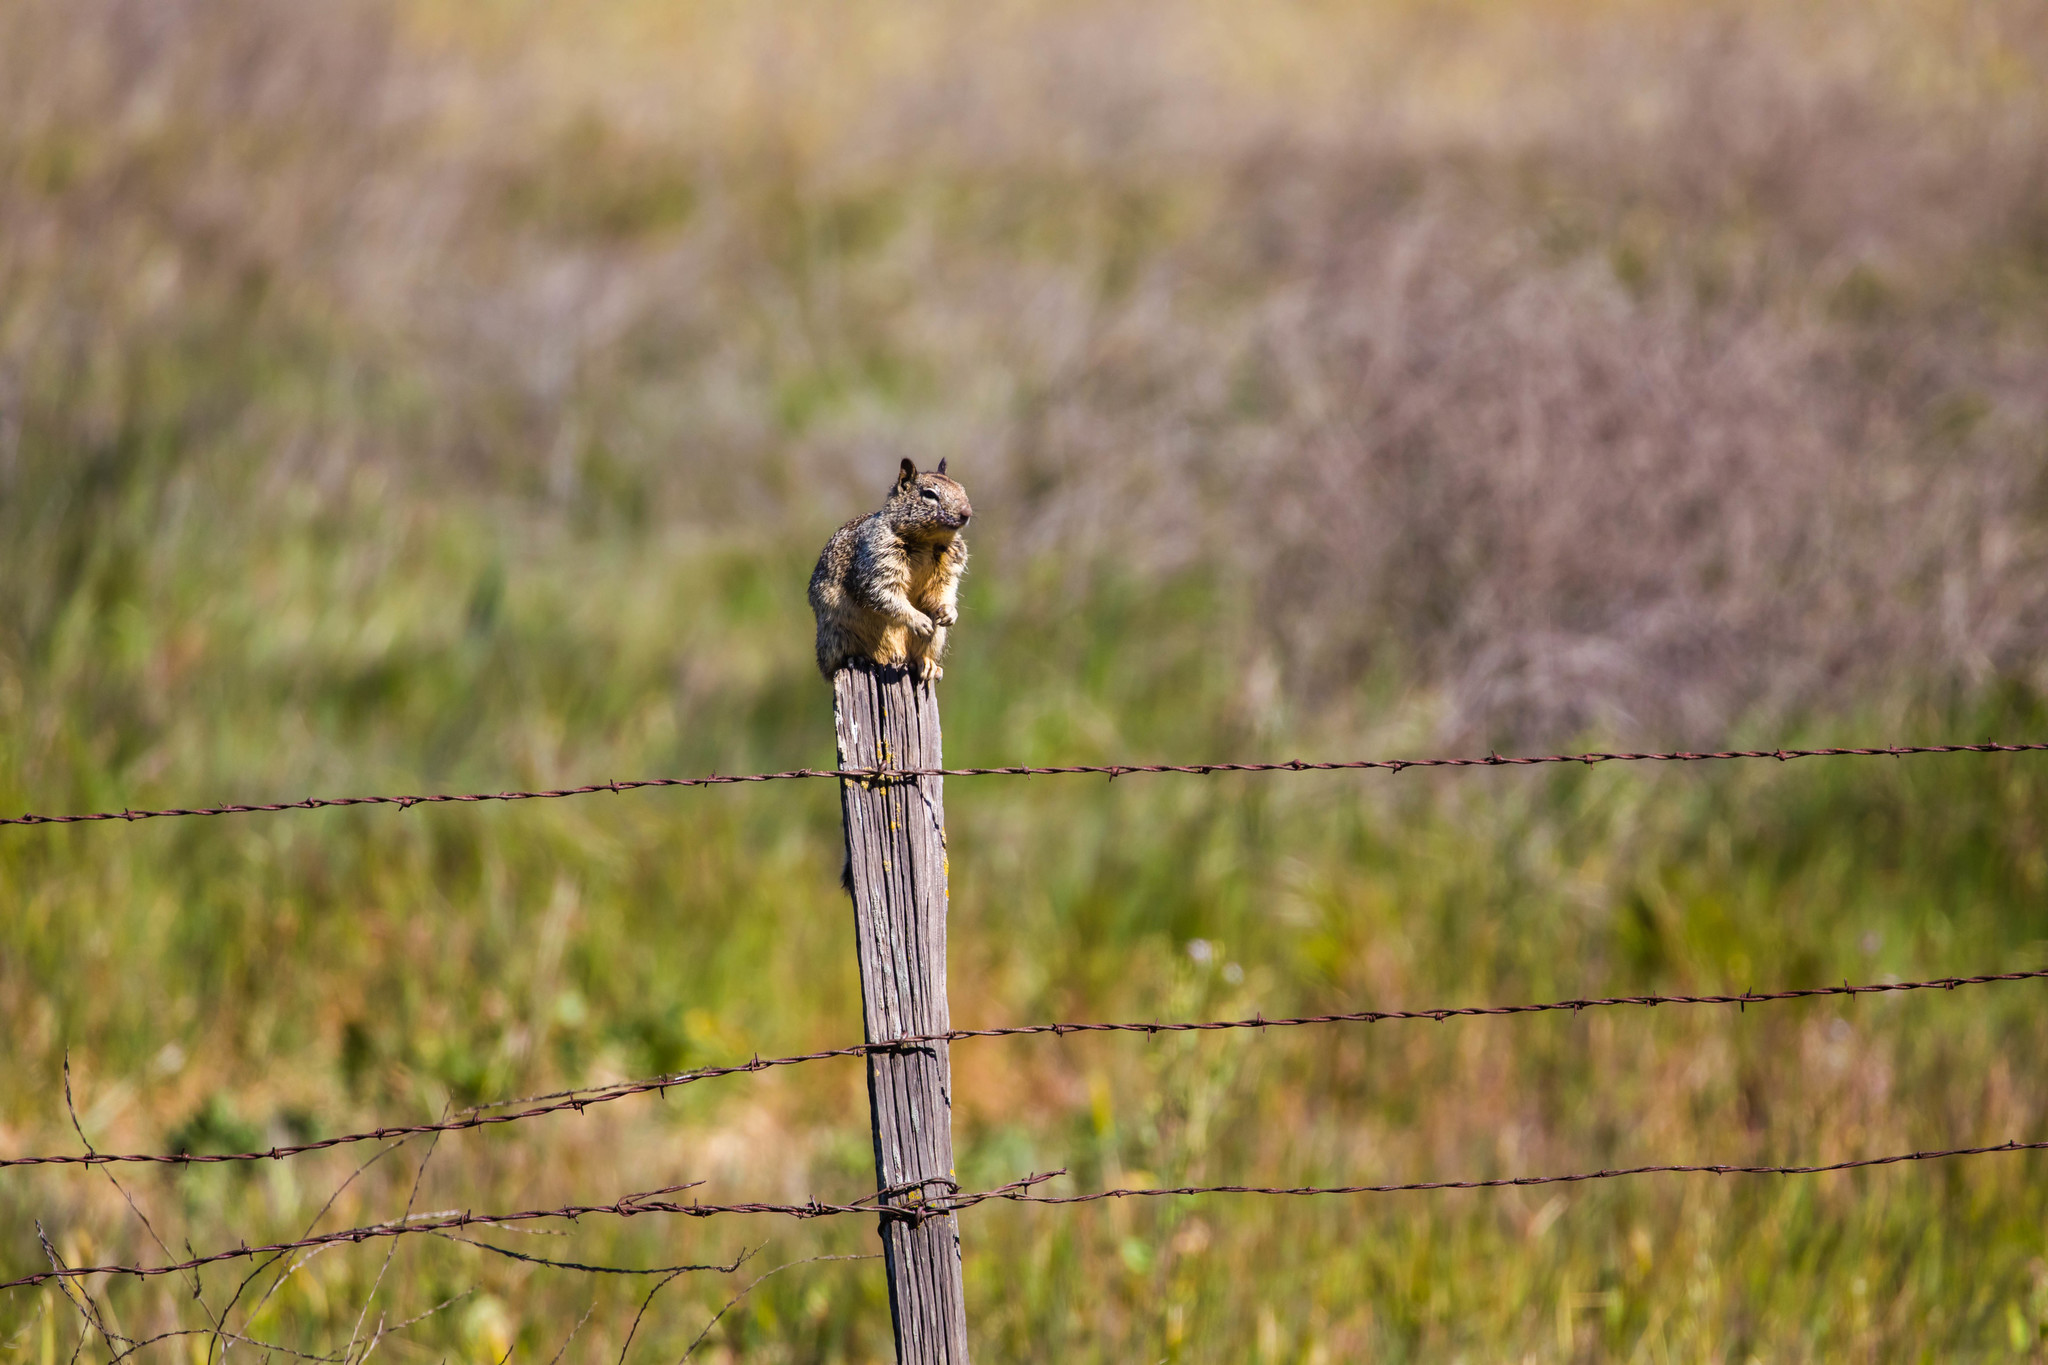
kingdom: Animalia
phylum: Chordata
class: Mammalia
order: Rodentia
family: Sciuridae
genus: Otospermophilus
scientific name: Otospermophilus beecheyi
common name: California ground squirrel
